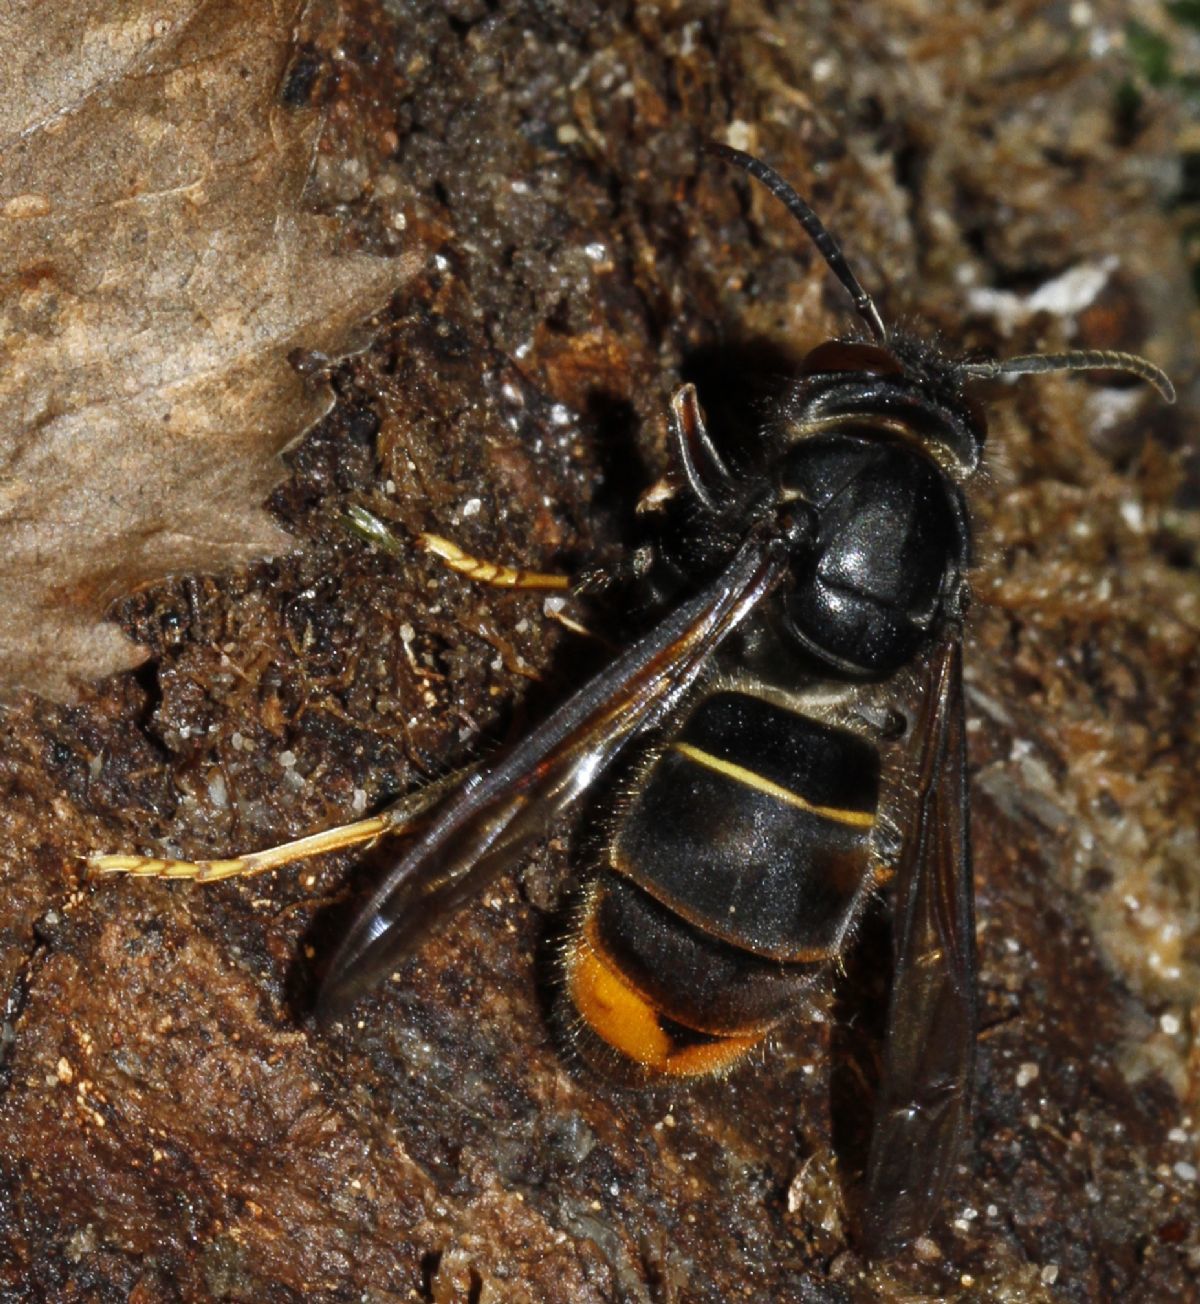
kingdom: Animalia
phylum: Arthropoda
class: Insecta
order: Hymenoptera
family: Vespidae
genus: Vespa
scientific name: Vespa velutina
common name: Asian hornet
